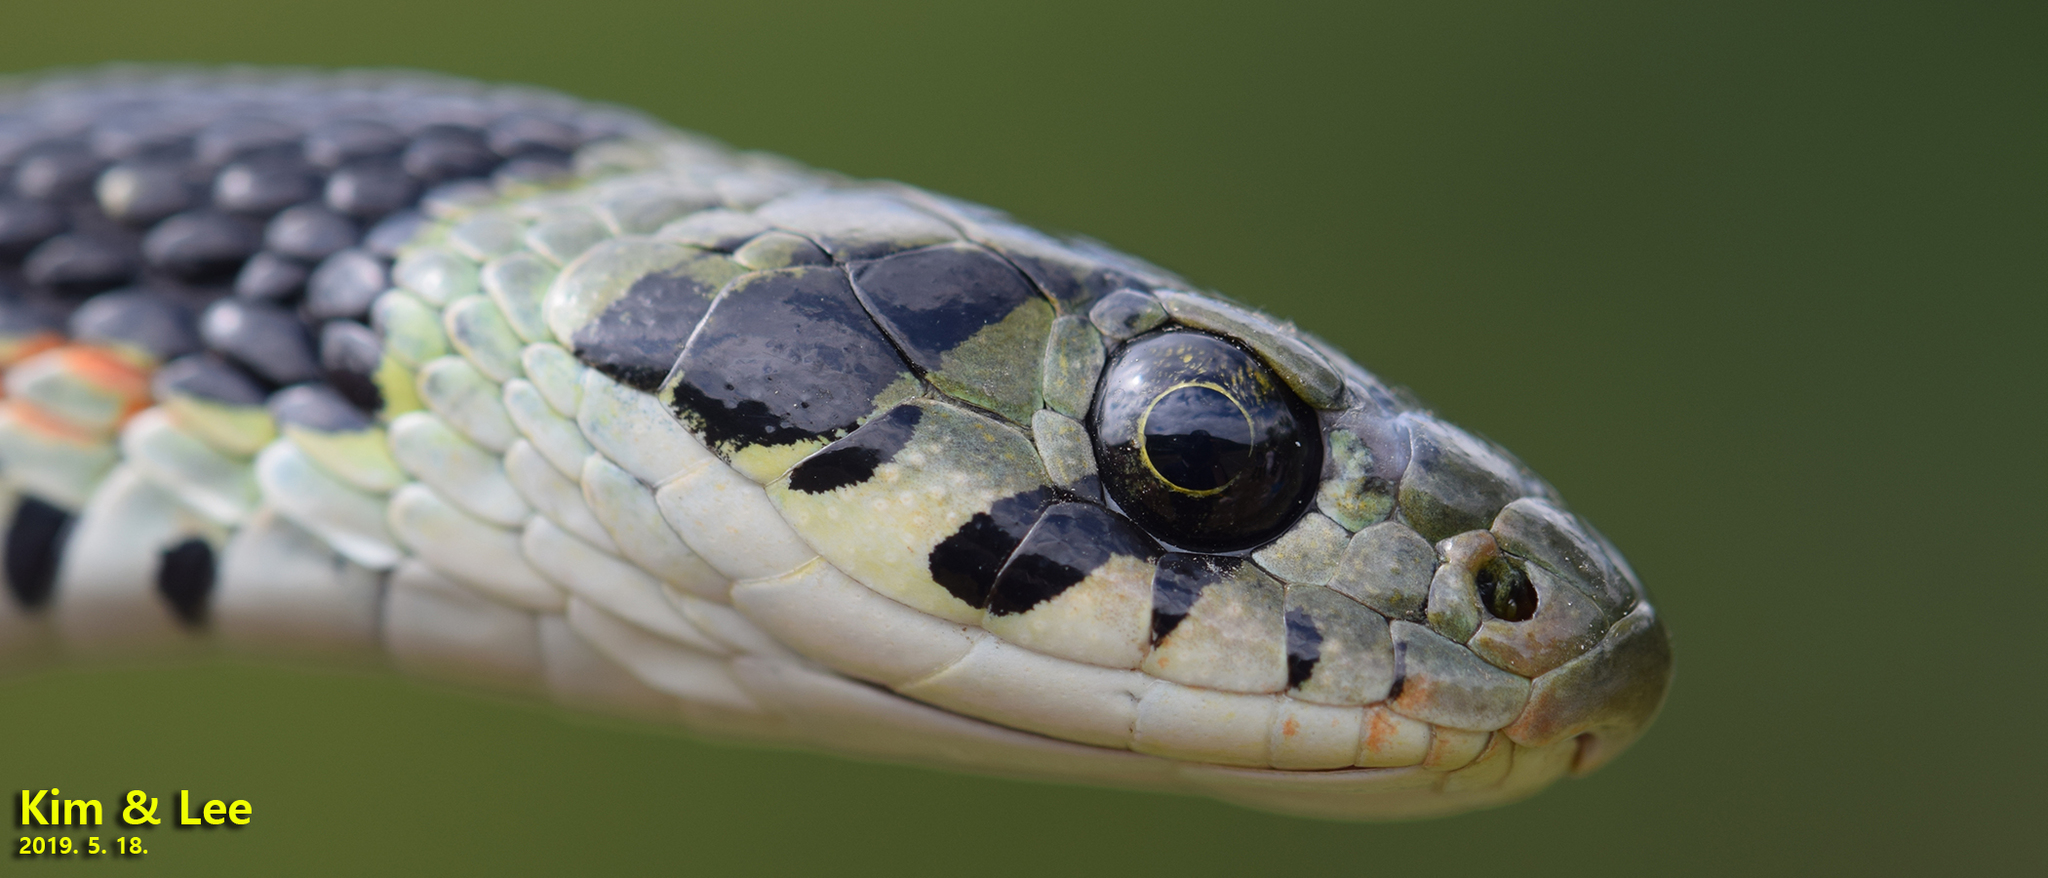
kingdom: Animalia
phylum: Chordata
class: Squamata
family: Colubridae
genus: Rhabdophis
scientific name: Rhabdophis tigrinus
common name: Tiger keelback
